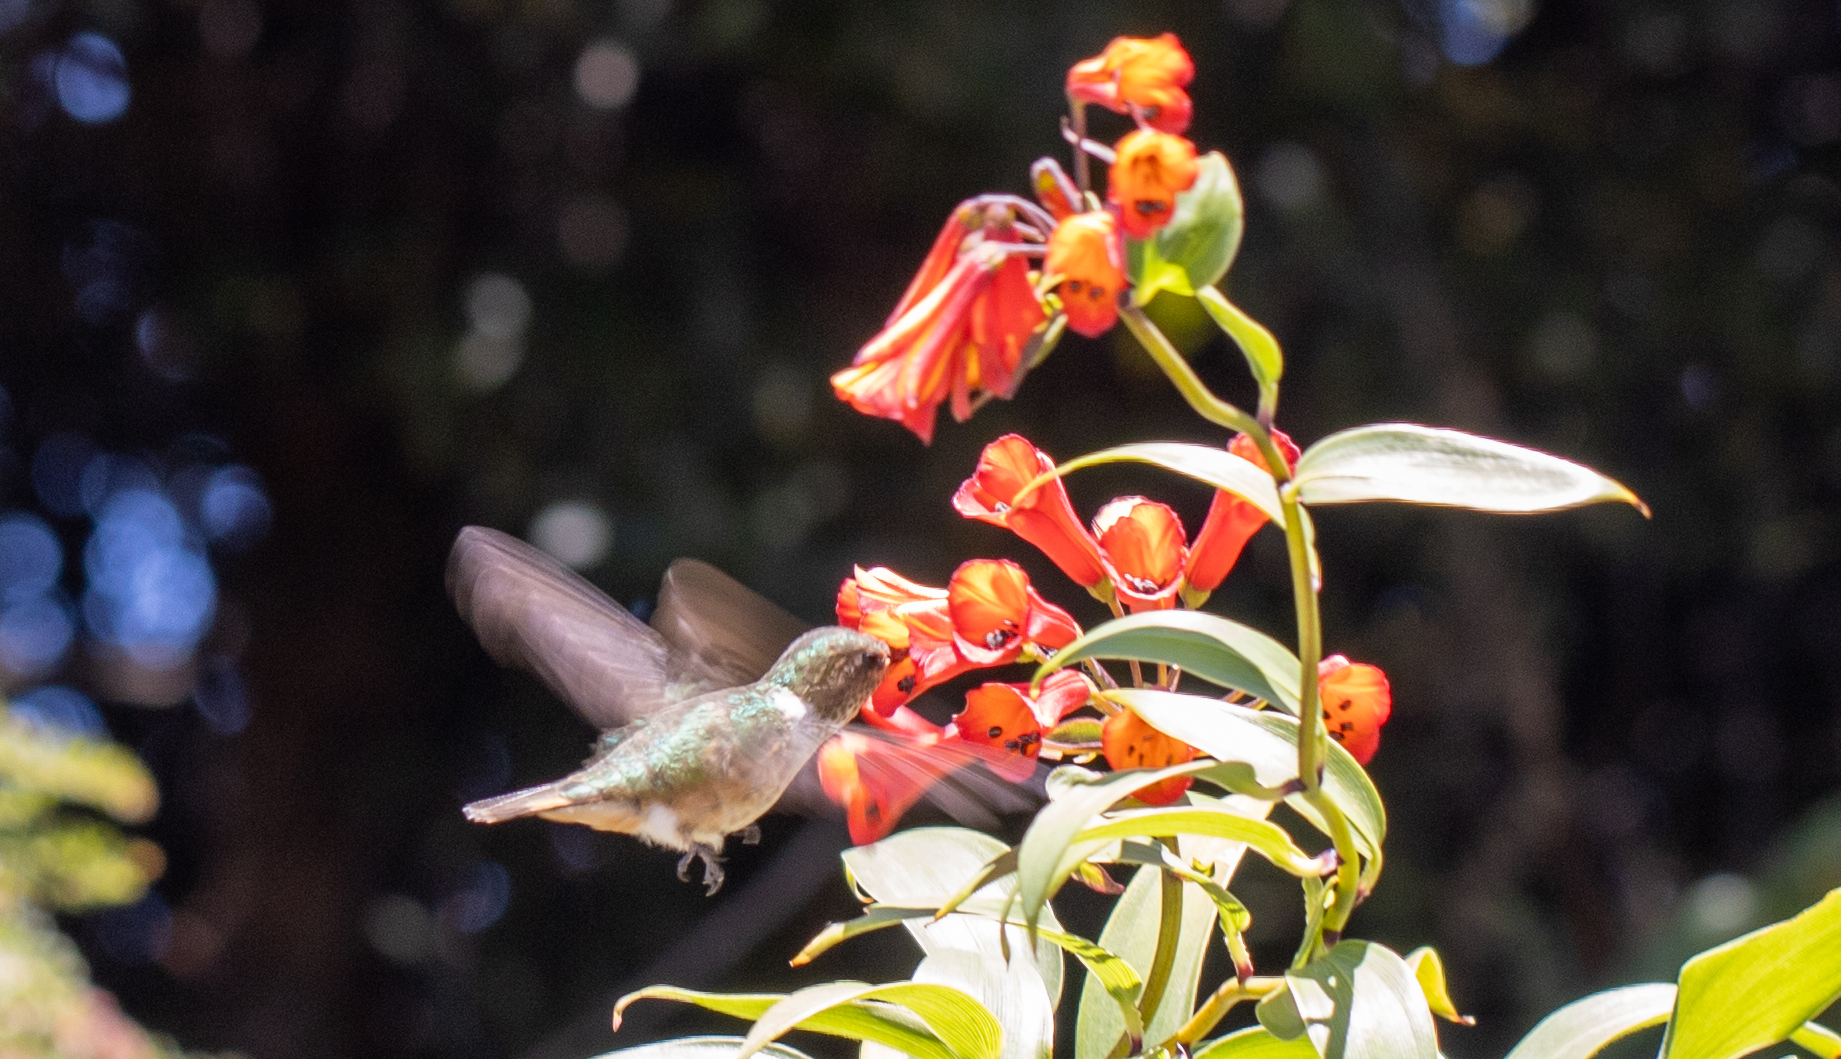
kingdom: Animalia
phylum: Chordata
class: Aves
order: Apodiformes
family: Trochilidae
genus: Selasphorus
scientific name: Selasphorus flammula
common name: Volcano hummingbird
